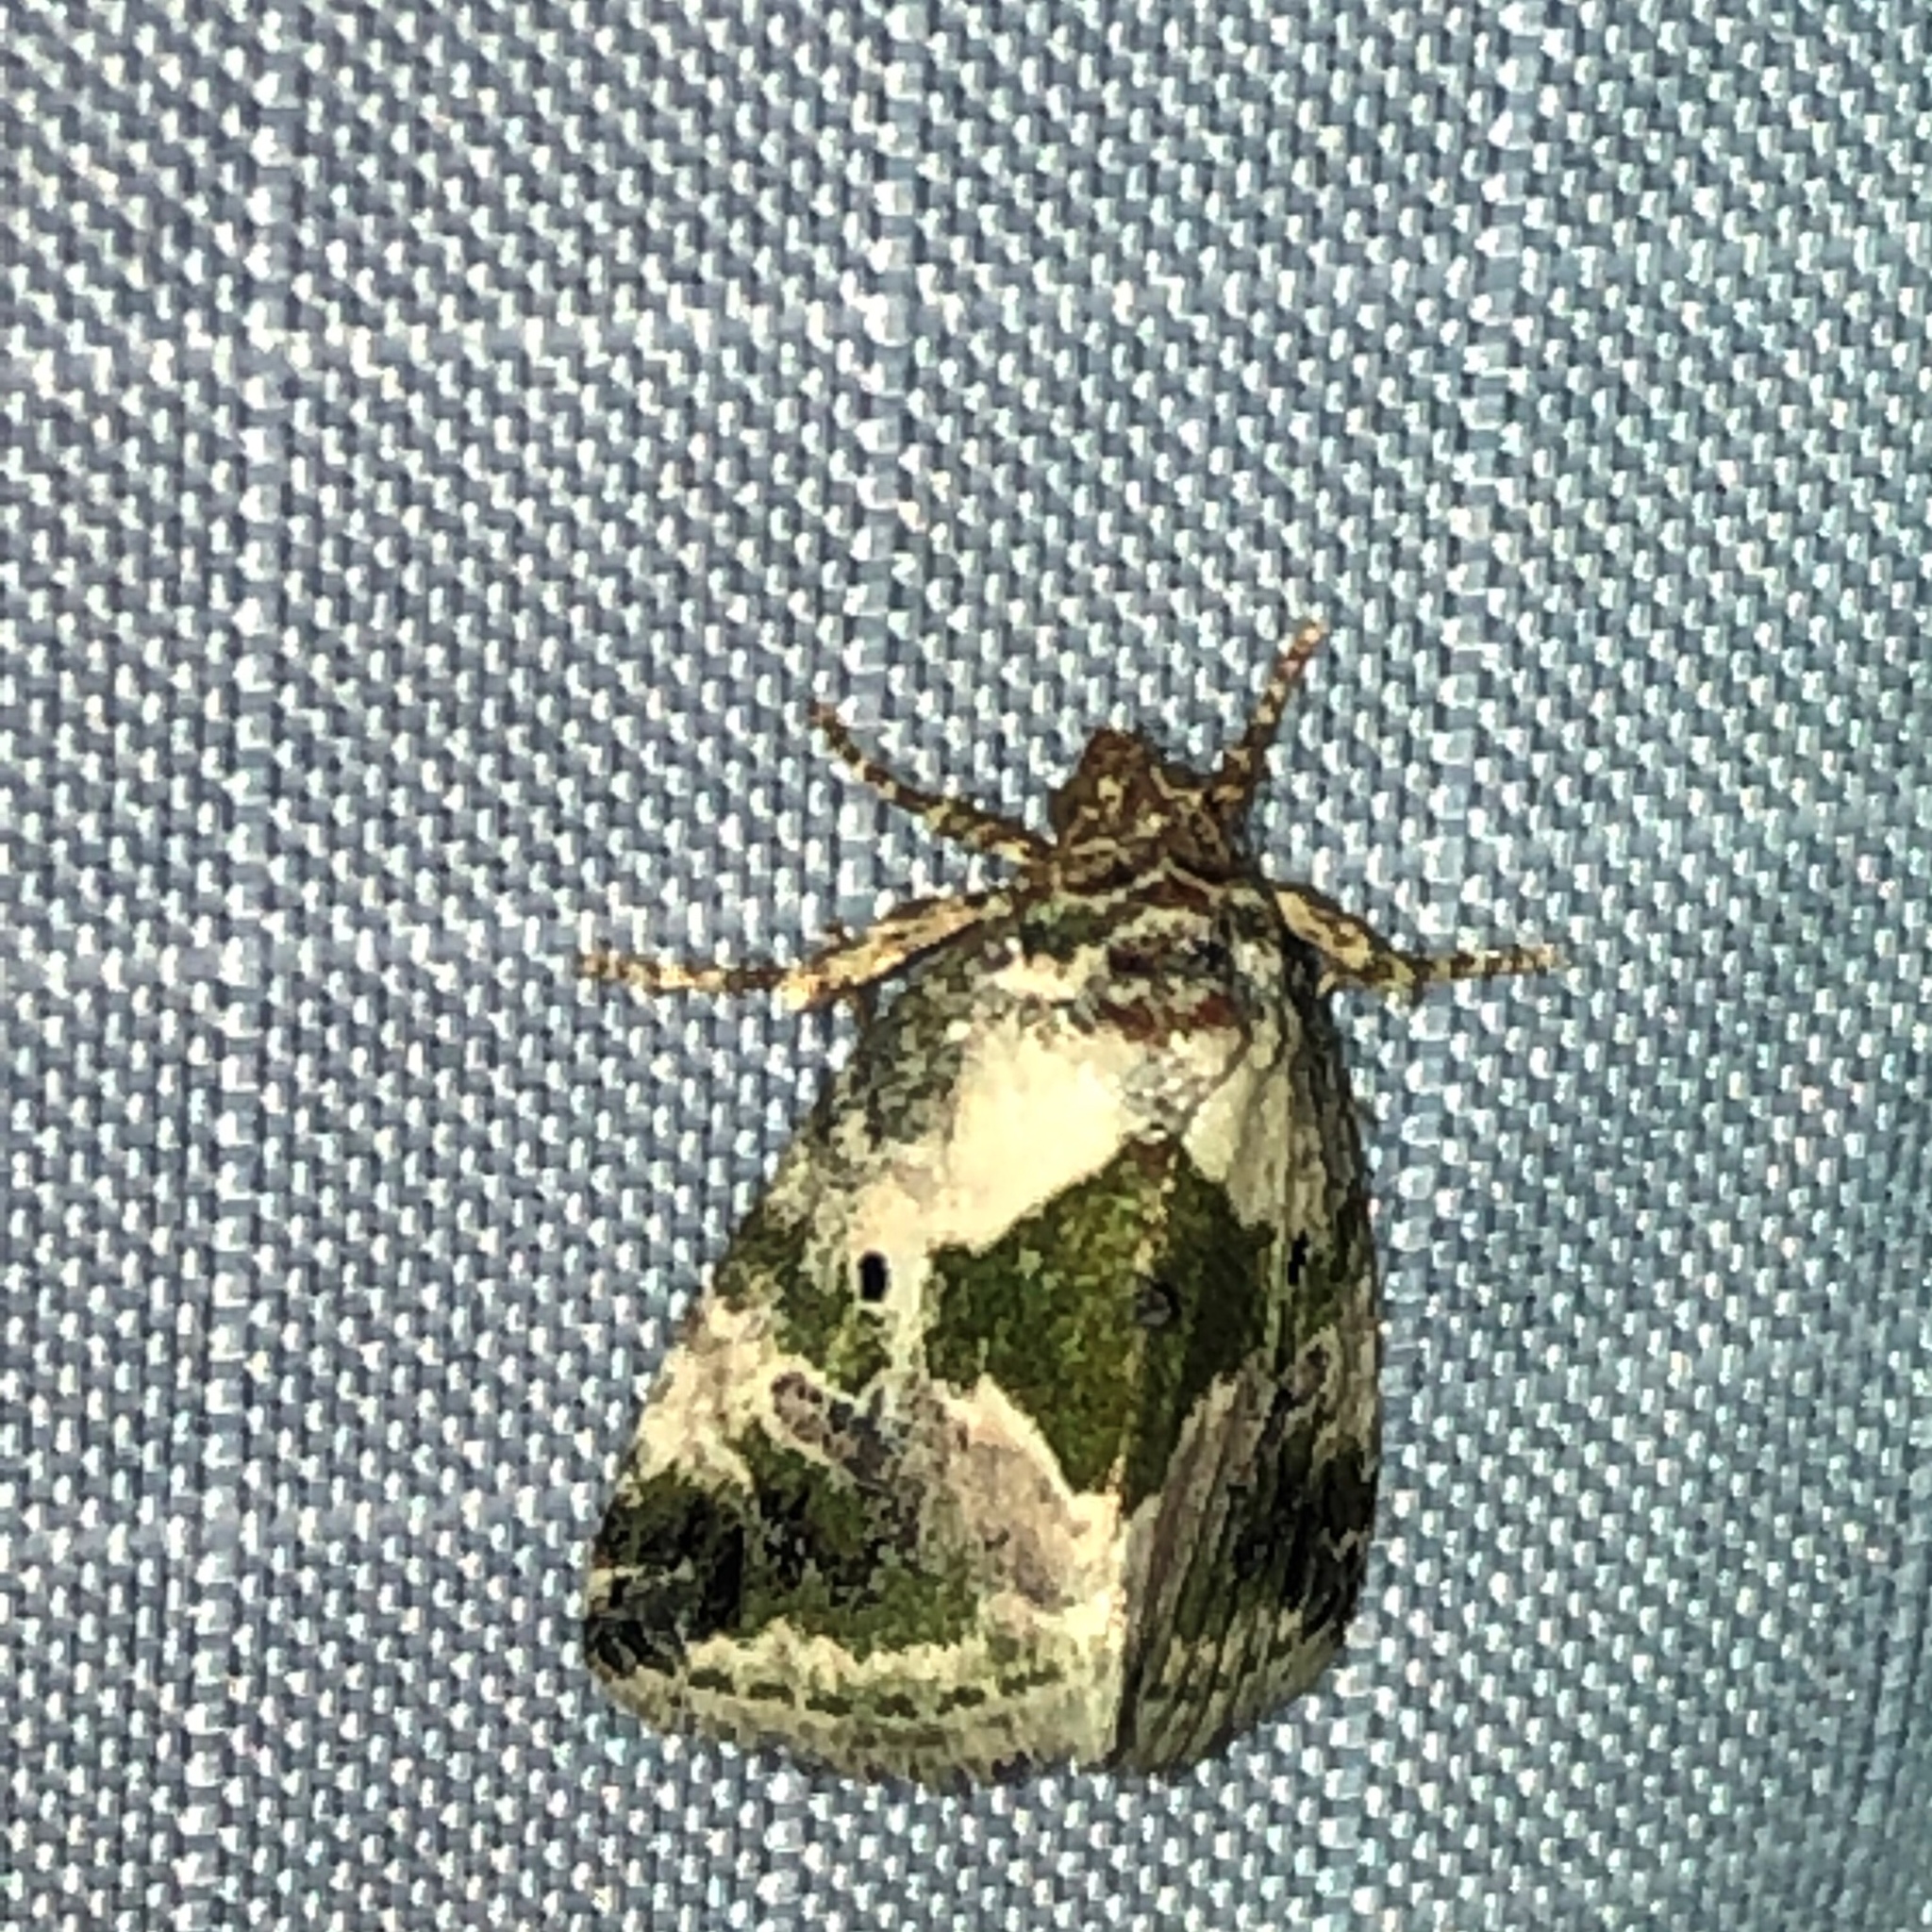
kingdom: Animalia
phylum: Arthropoda
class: Insecta
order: Lepidoptera
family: Noctuidae
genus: Maliattha
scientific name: Maliattha synochitis
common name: Black-dotted glyph
